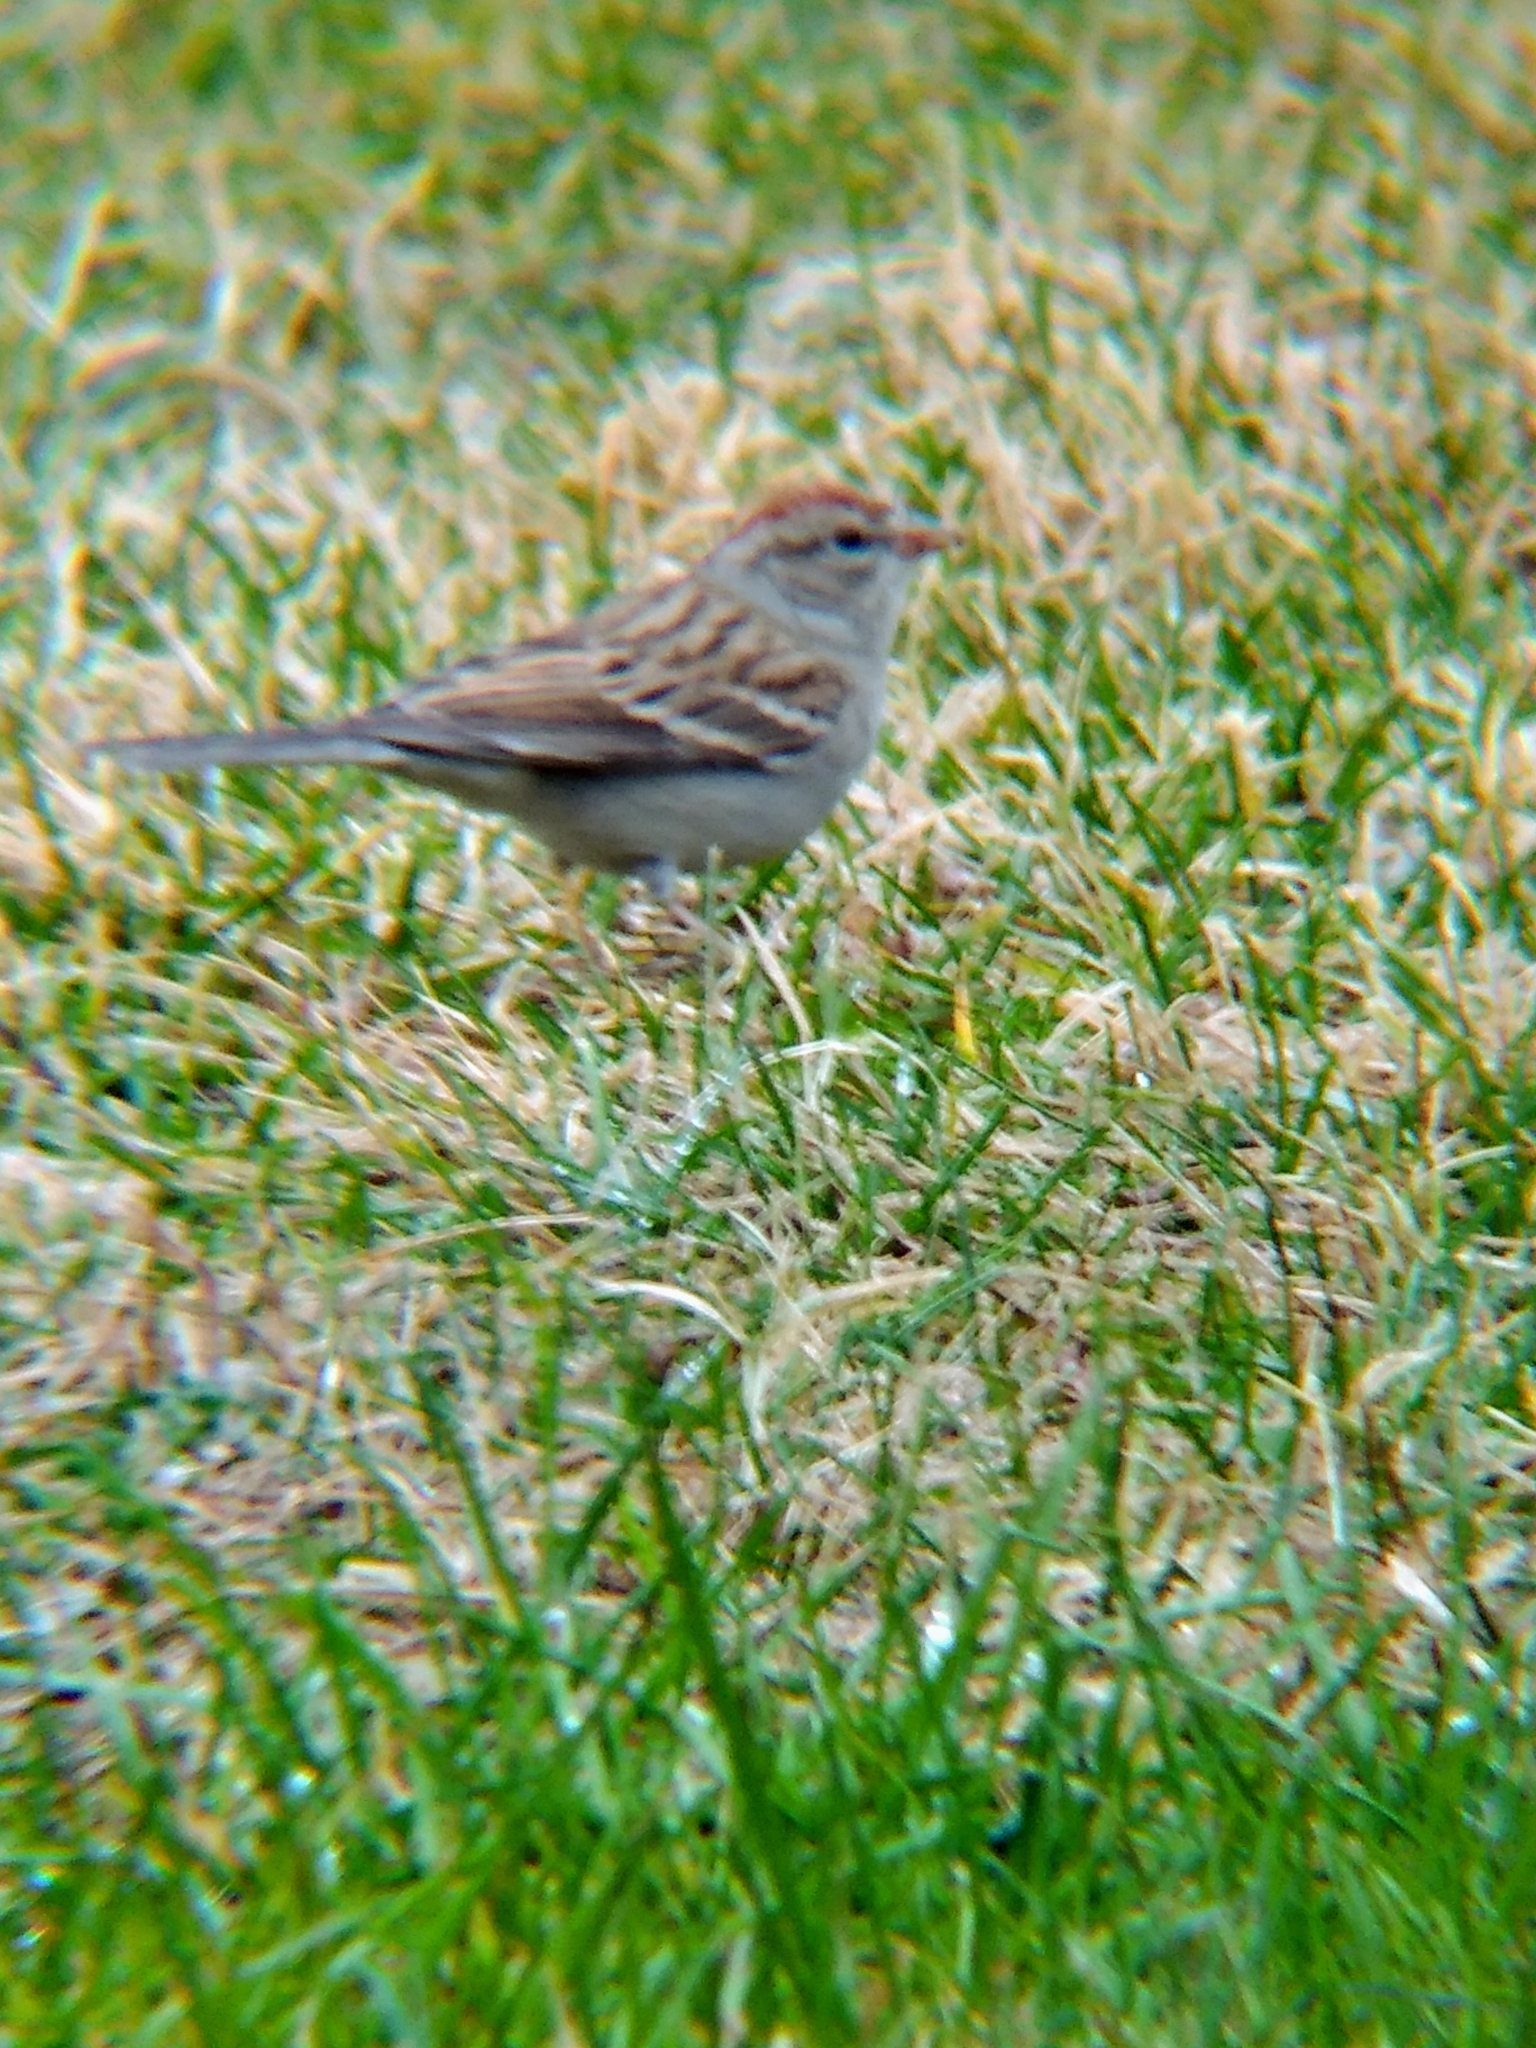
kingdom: Animalia
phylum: Chordata
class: Aves
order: Passeriformes
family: Passerellidae
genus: Spizella
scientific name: Spizella passerina
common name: Chipping sparrow
